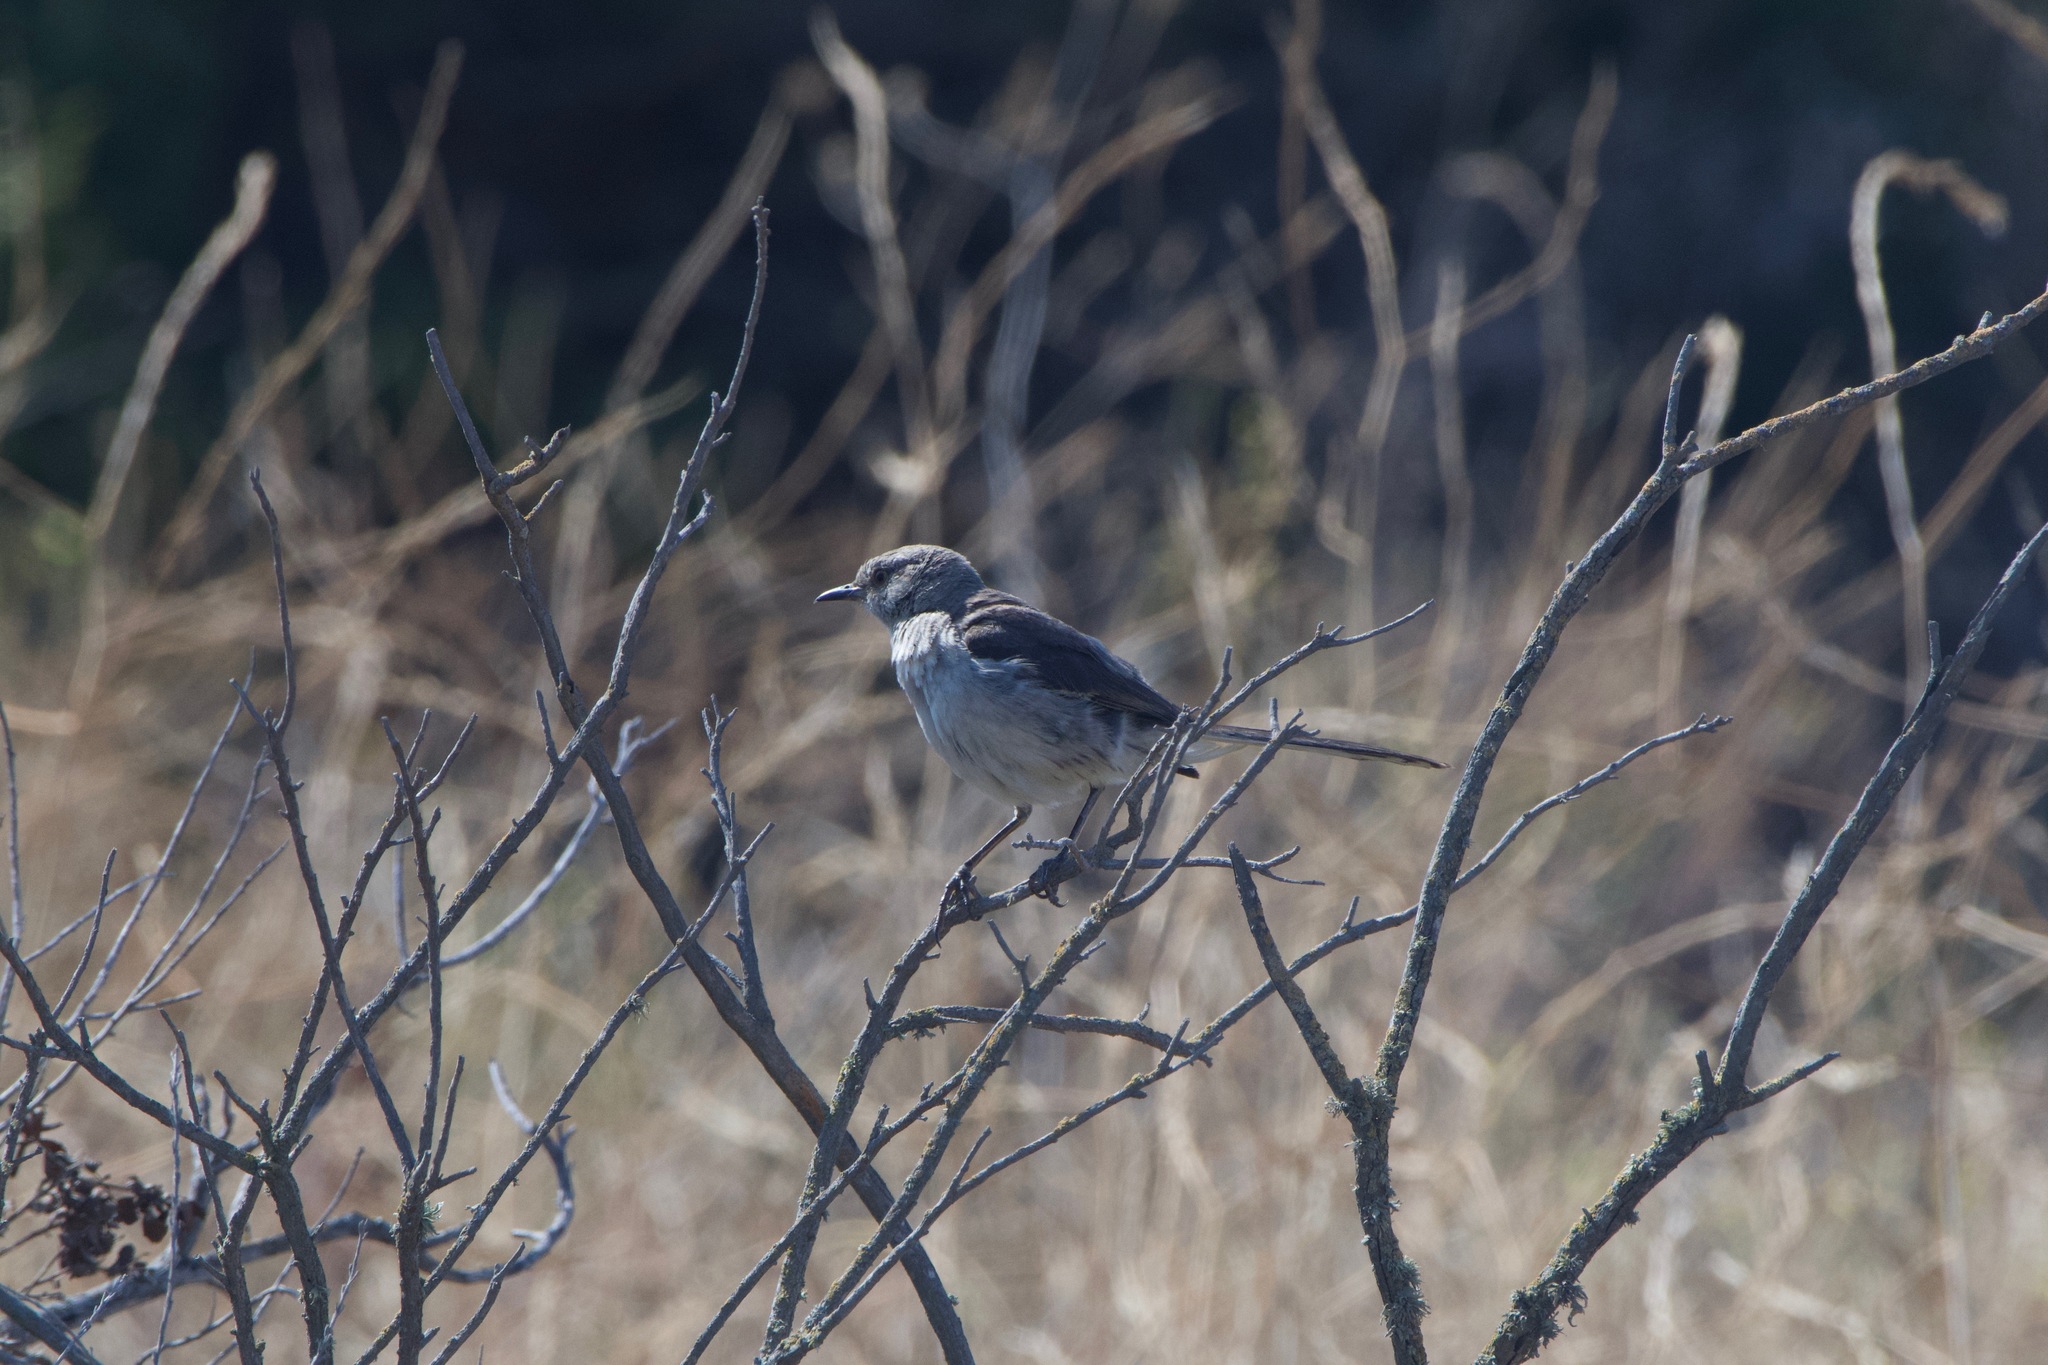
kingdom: Animalia
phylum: Chordata
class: Aves
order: Passeriformes
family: Mimidae
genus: Mimus
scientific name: Mimus polyglottos
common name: Northern mockingbird
